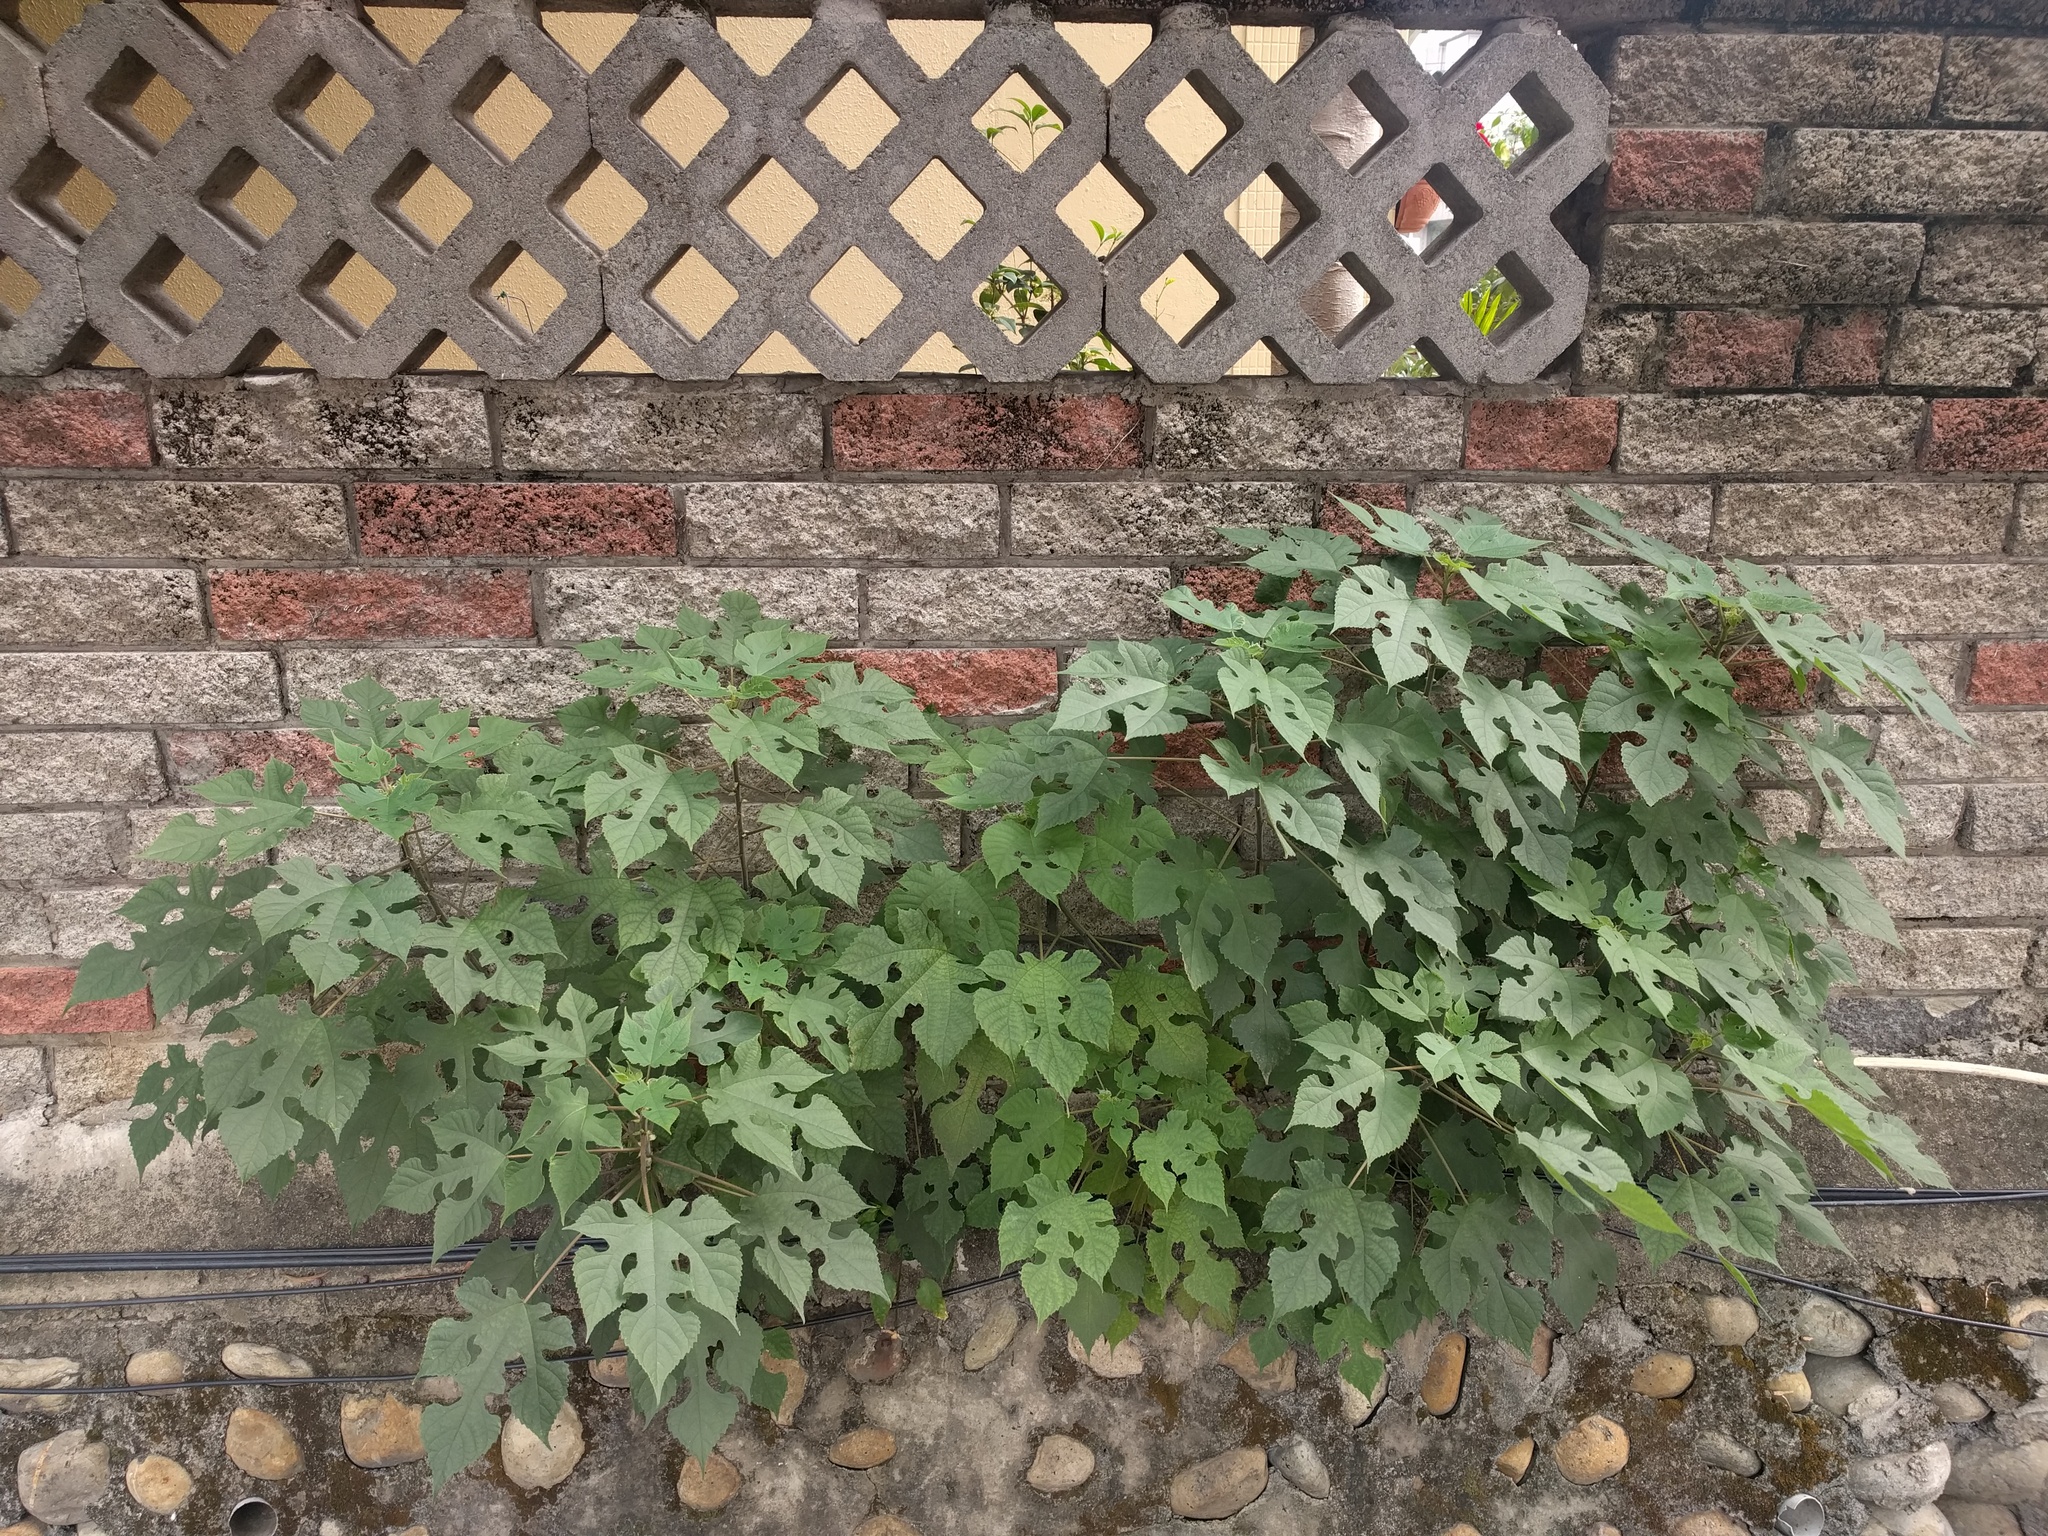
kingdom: Plantae
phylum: Tracheophyta
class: Magnoliopsida
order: Rosales
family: Moraceae
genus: Broussonetia
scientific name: Broussonetia papyrifera
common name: Paper mulberry
